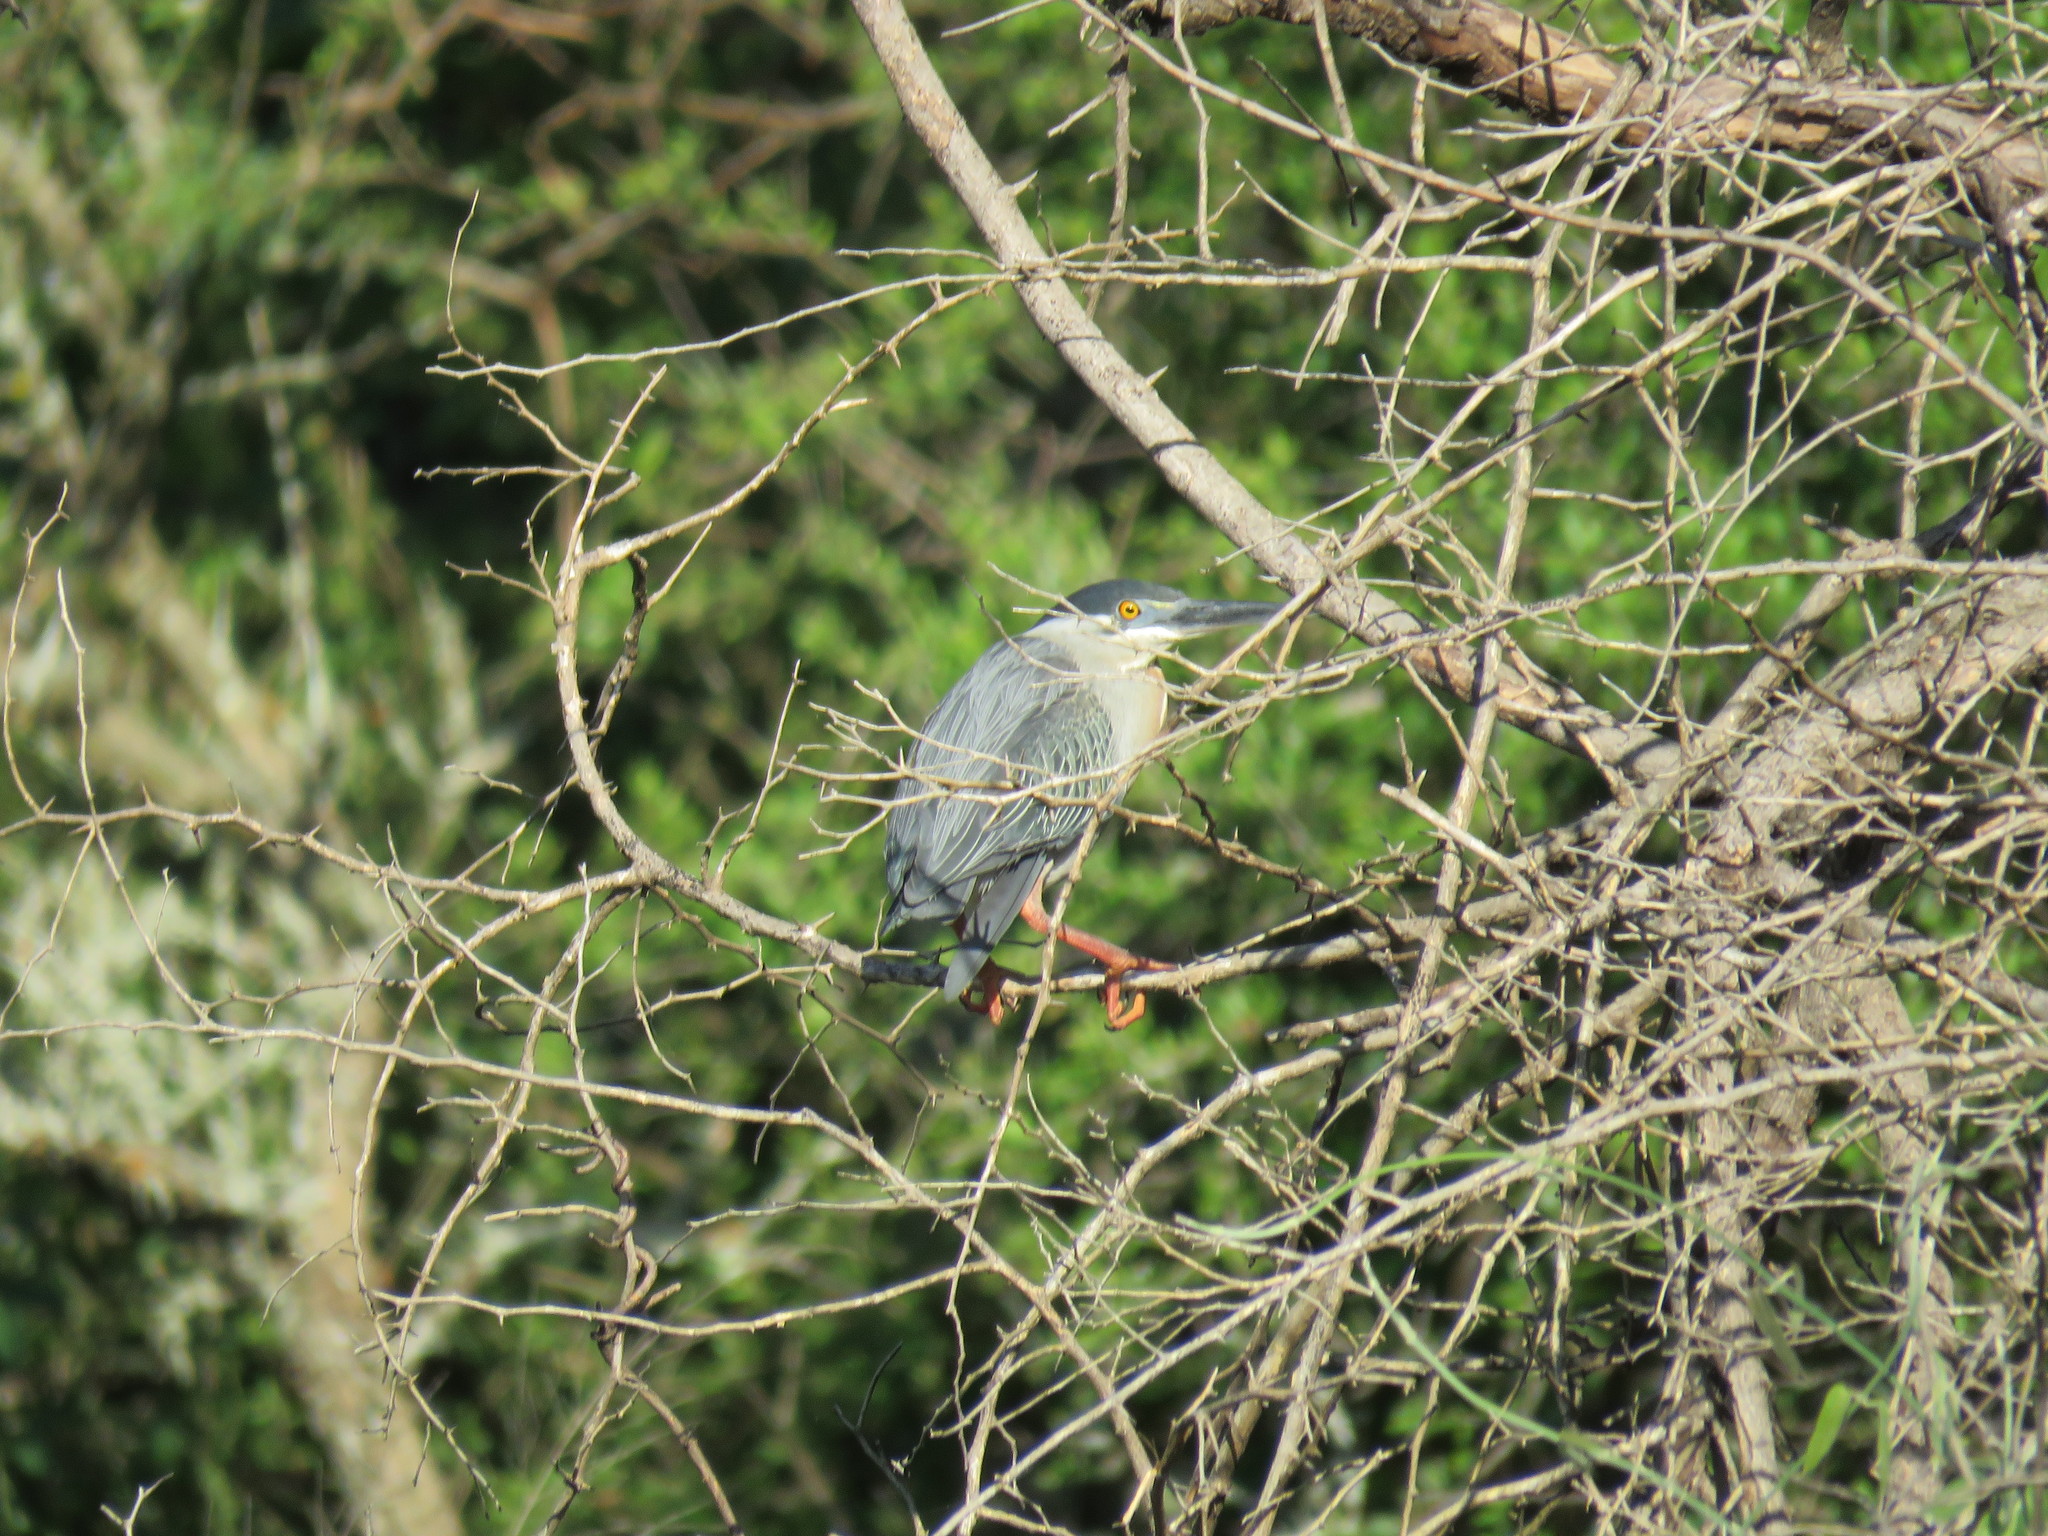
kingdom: Animalia
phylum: Chordata
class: Aves
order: Pelecaniformes
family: Ardeidae
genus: Butorides
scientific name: Butorides striata
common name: Striated heron
